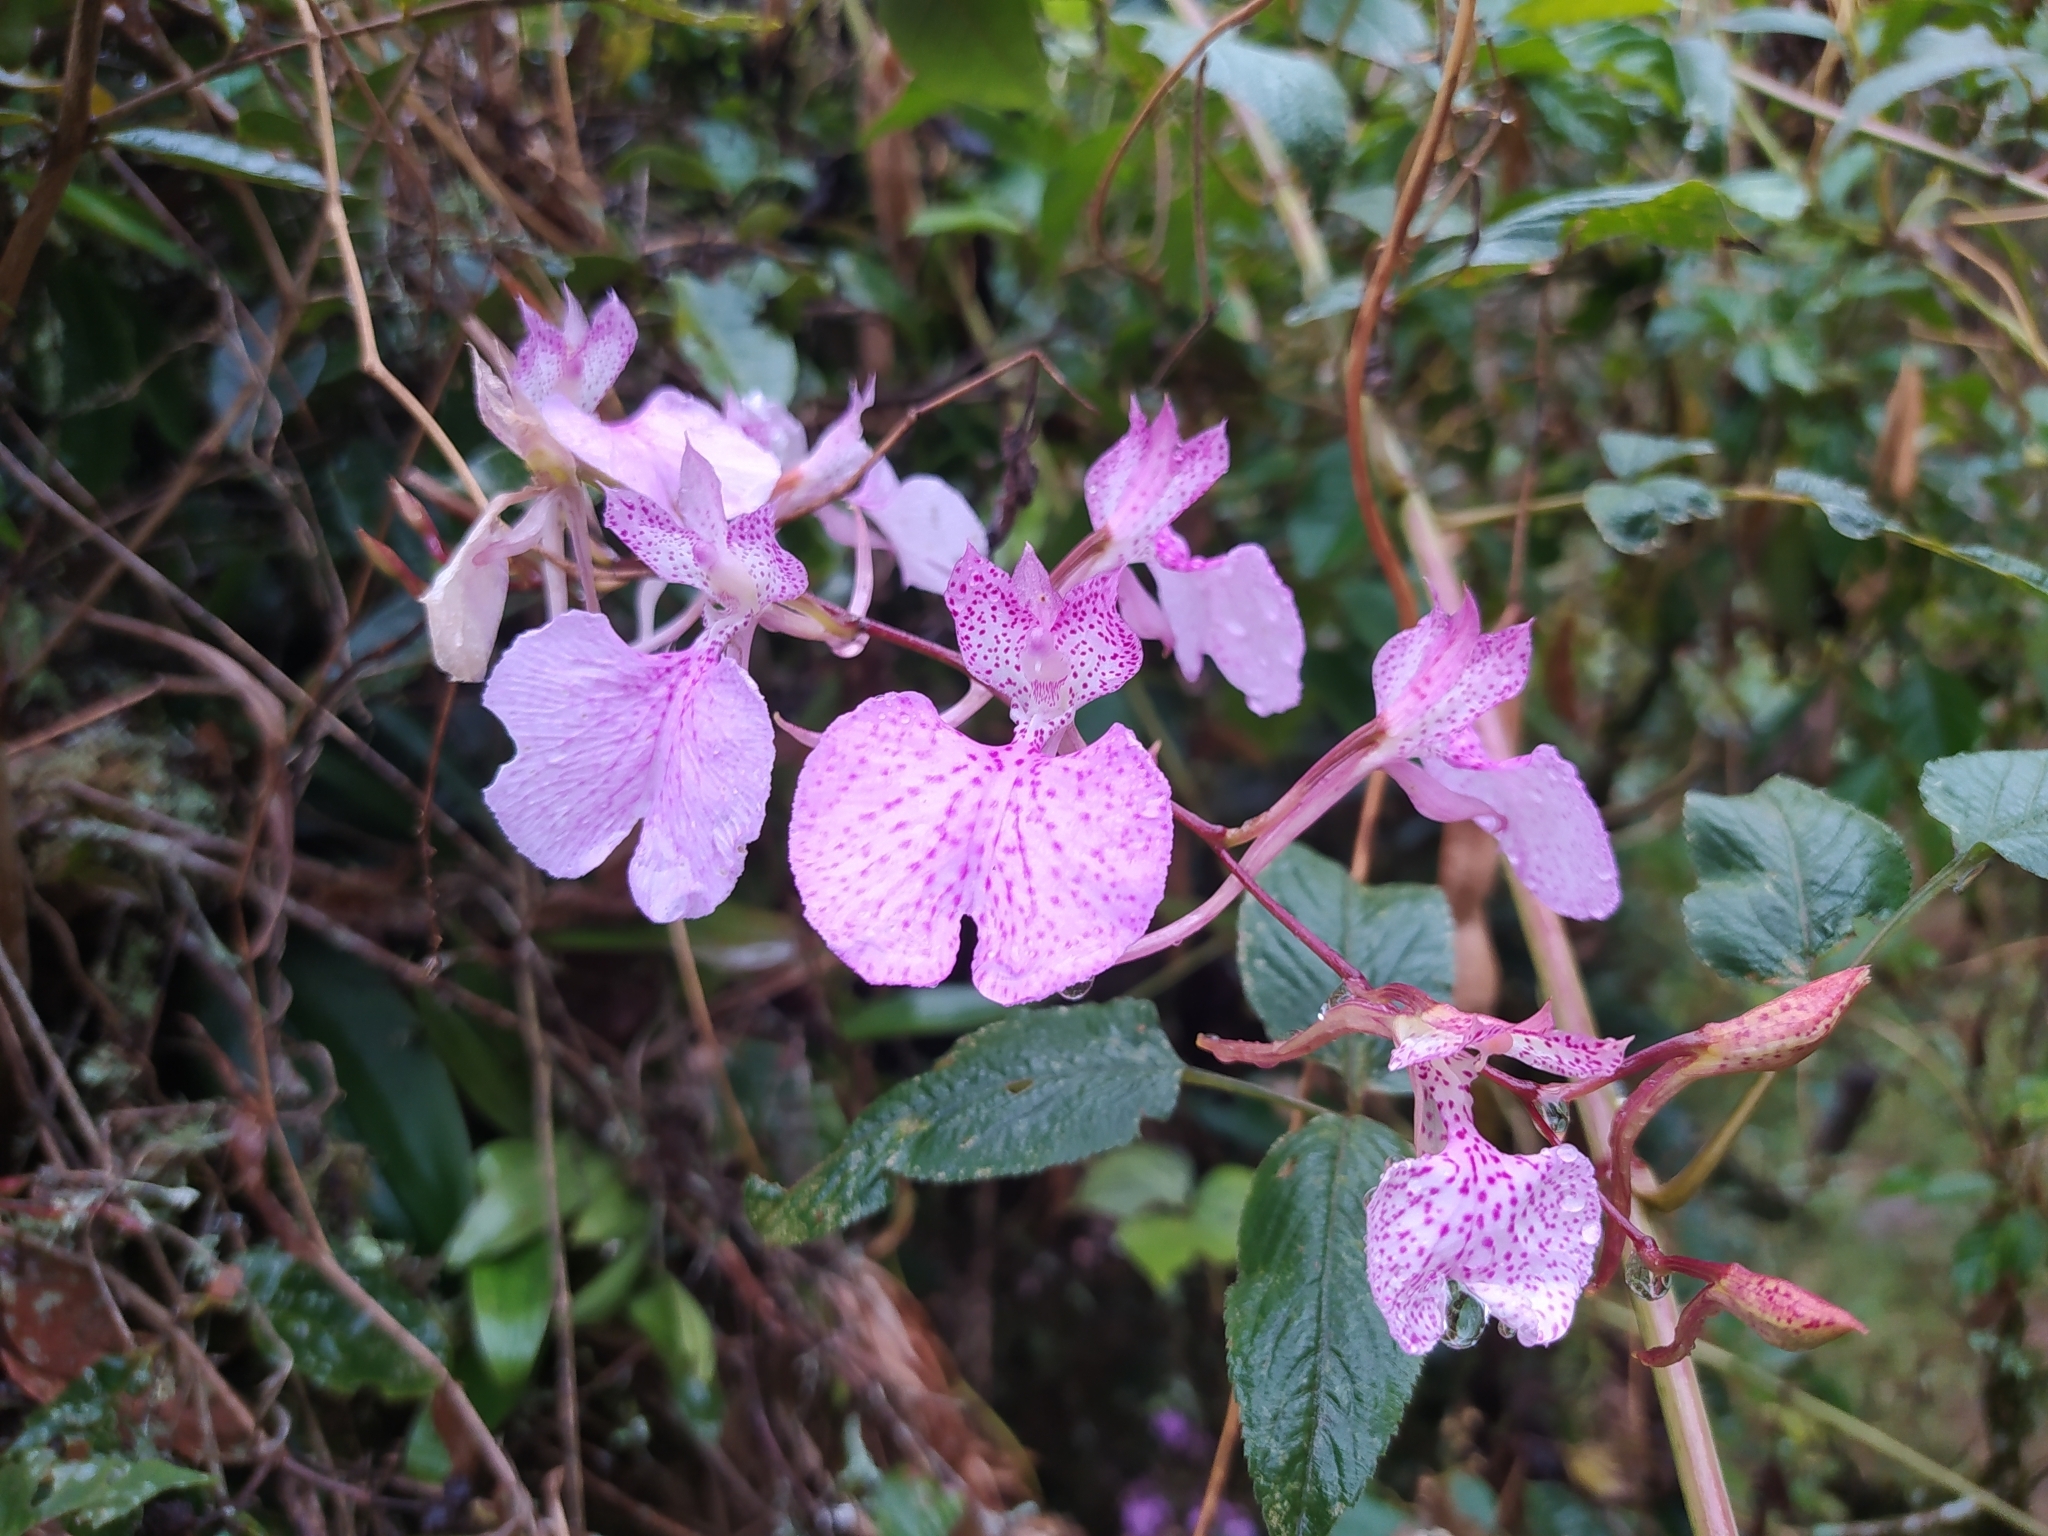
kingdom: Plantae
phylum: Tracheophyta
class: Liliopsida
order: Asparagales
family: Orchidaceae
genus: Comparettia
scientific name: Comparettia macroplectron
